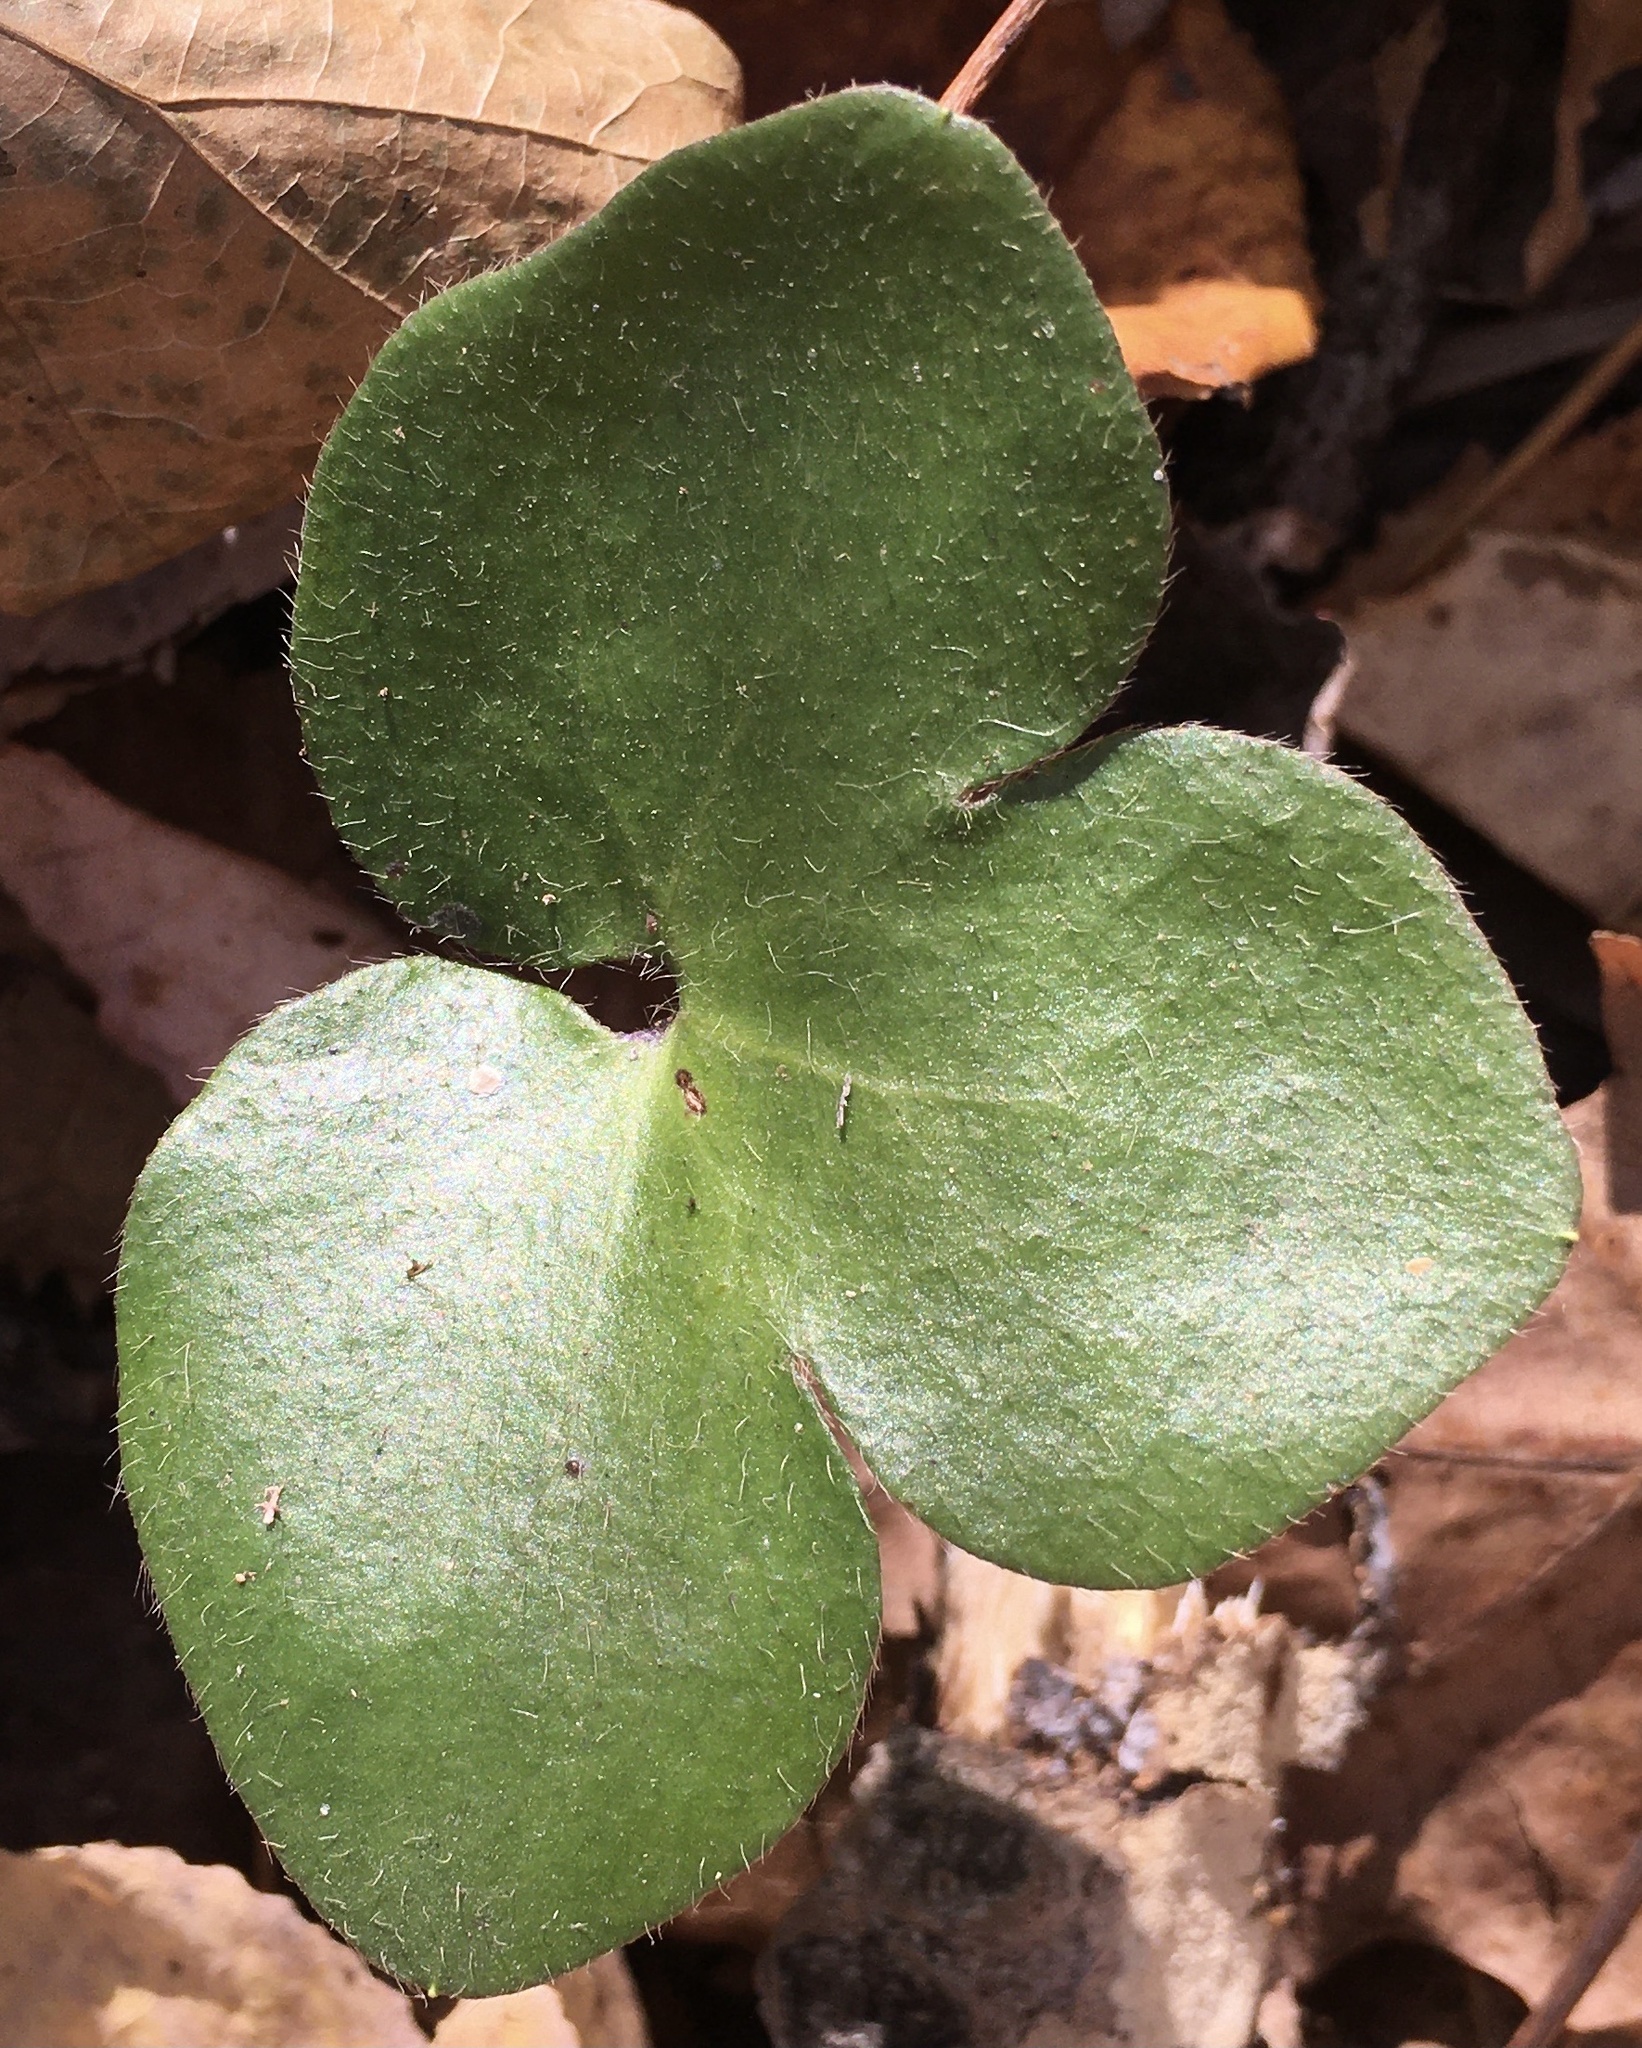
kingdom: Plantae
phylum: Tracheophyta
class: Magnoliopsida
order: Ranunculales
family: Ranunculaceae
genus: Hepatica
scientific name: Hepatica americana
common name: American hepatica
